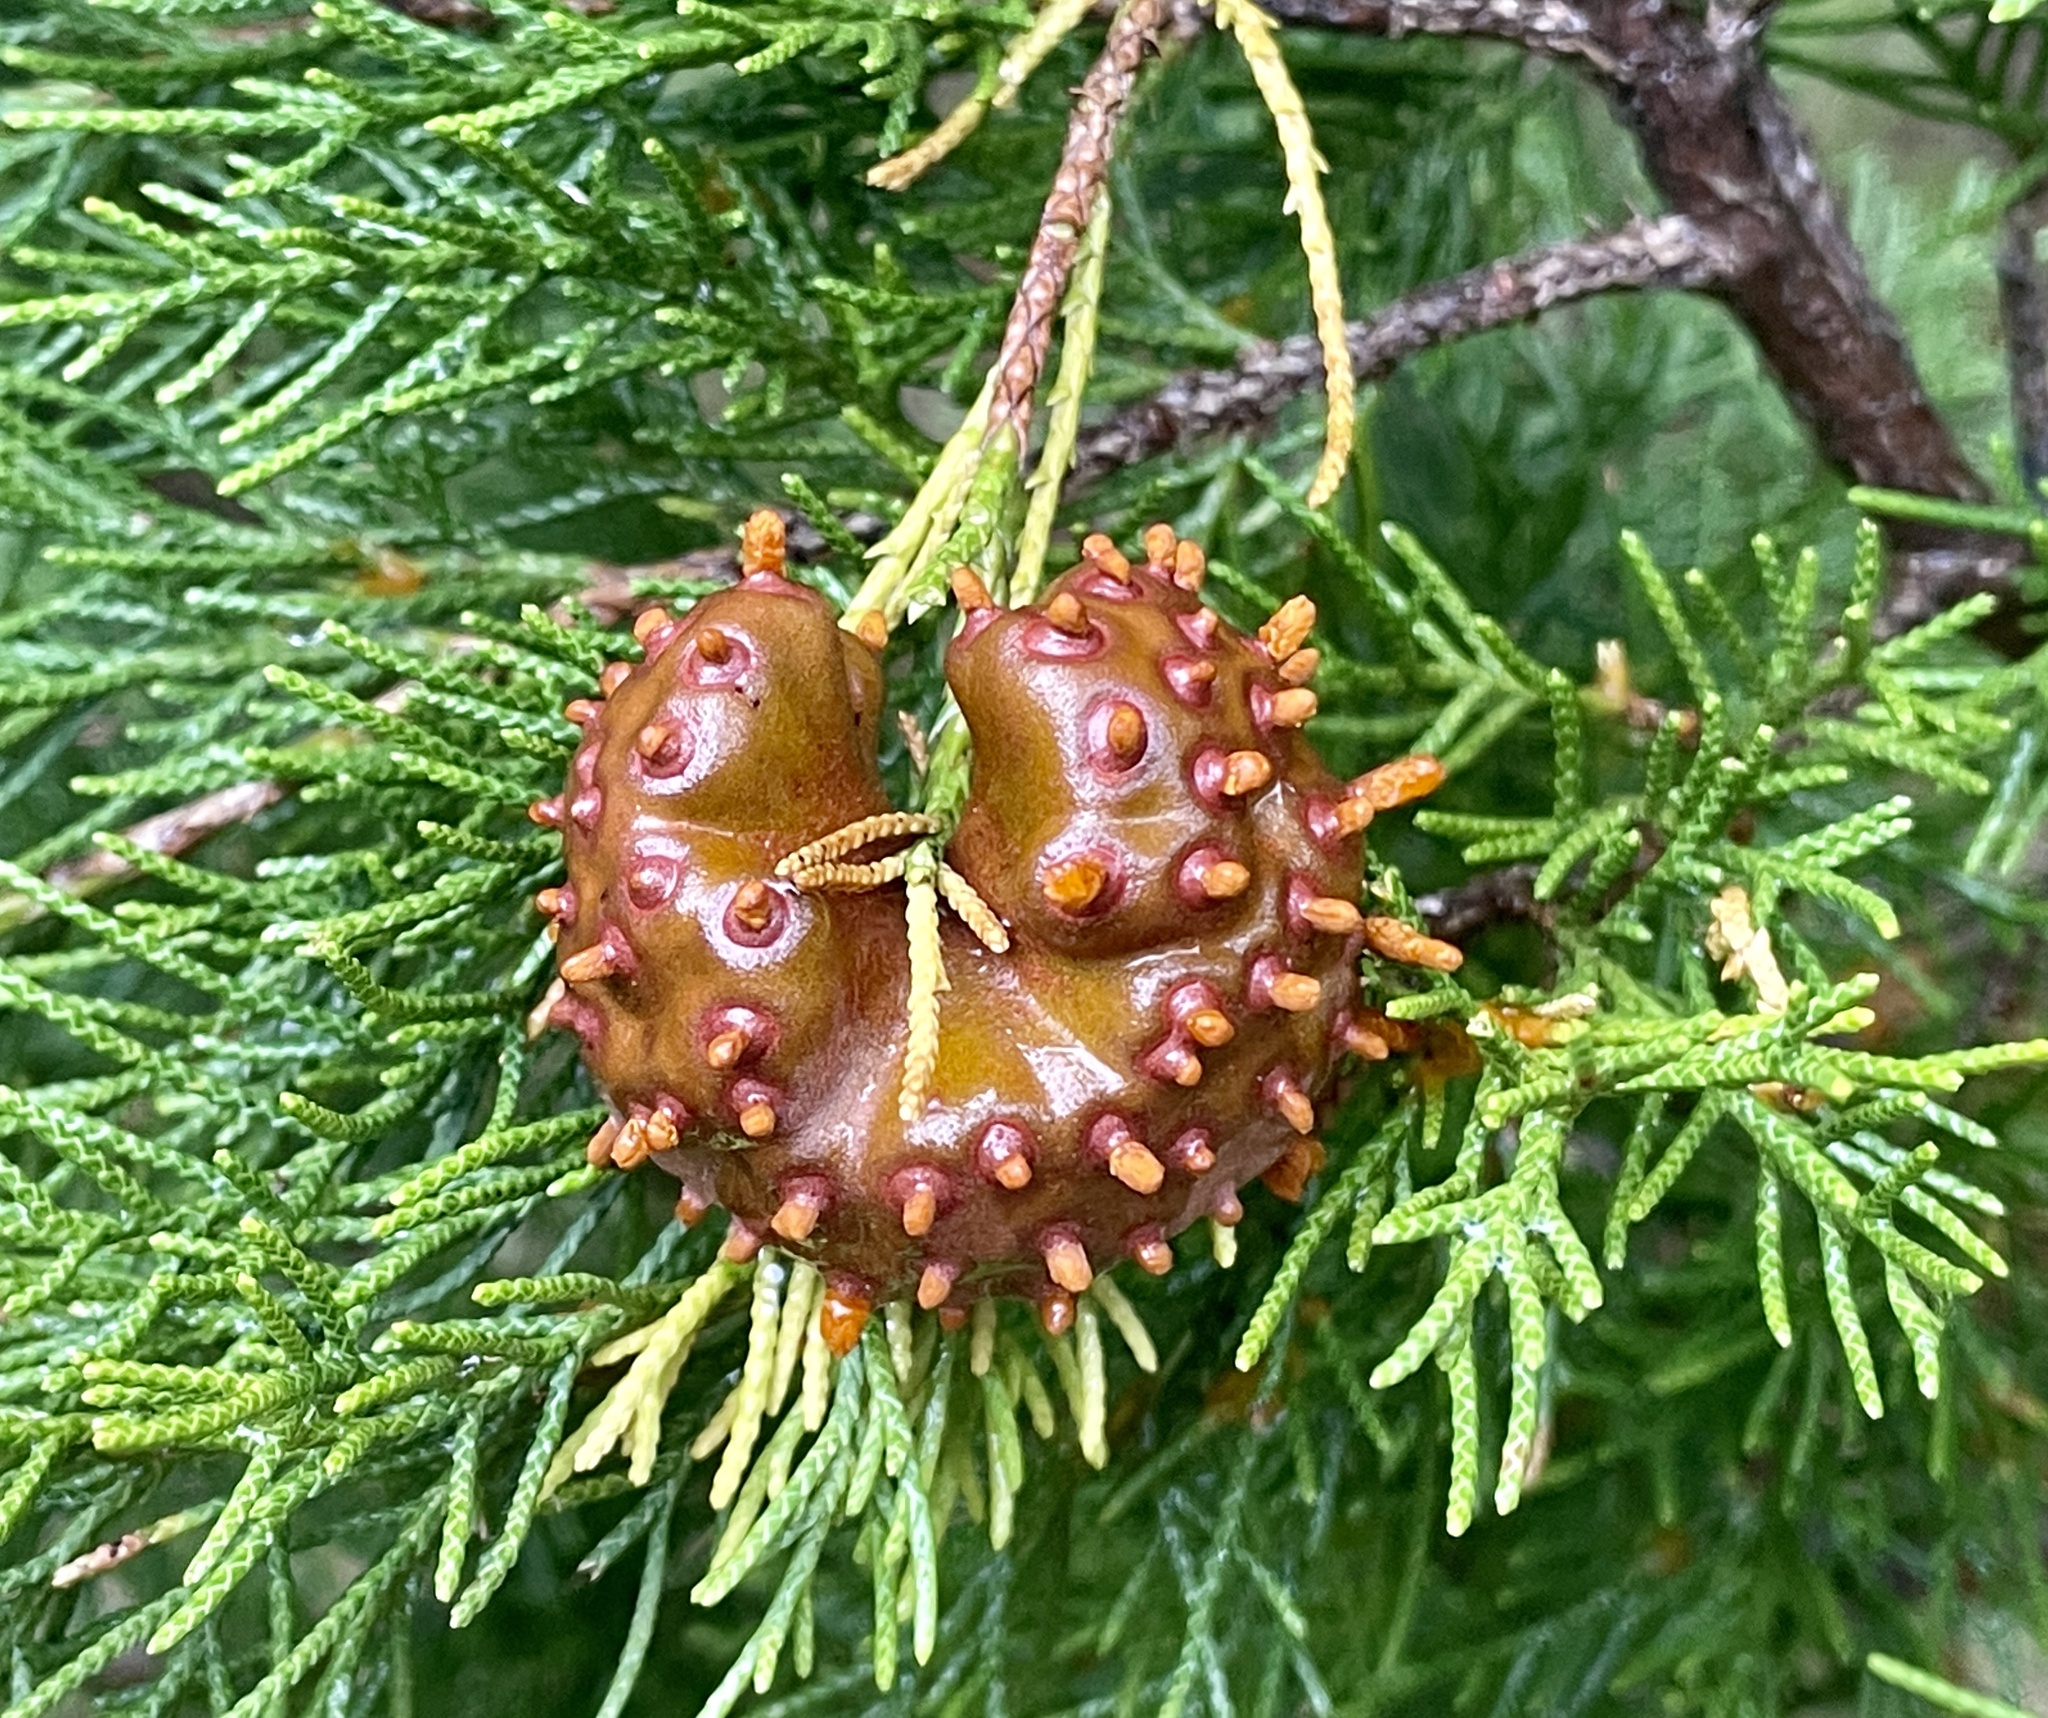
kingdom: Fungi
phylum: Basidiomycota
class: Pucciniomycetes
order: Pucciniales
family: Gymnosporangiaceae
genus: Gymnosporangium
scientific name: Gymnosporangium juniperi-virginianae
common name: Juniper-apple rust
